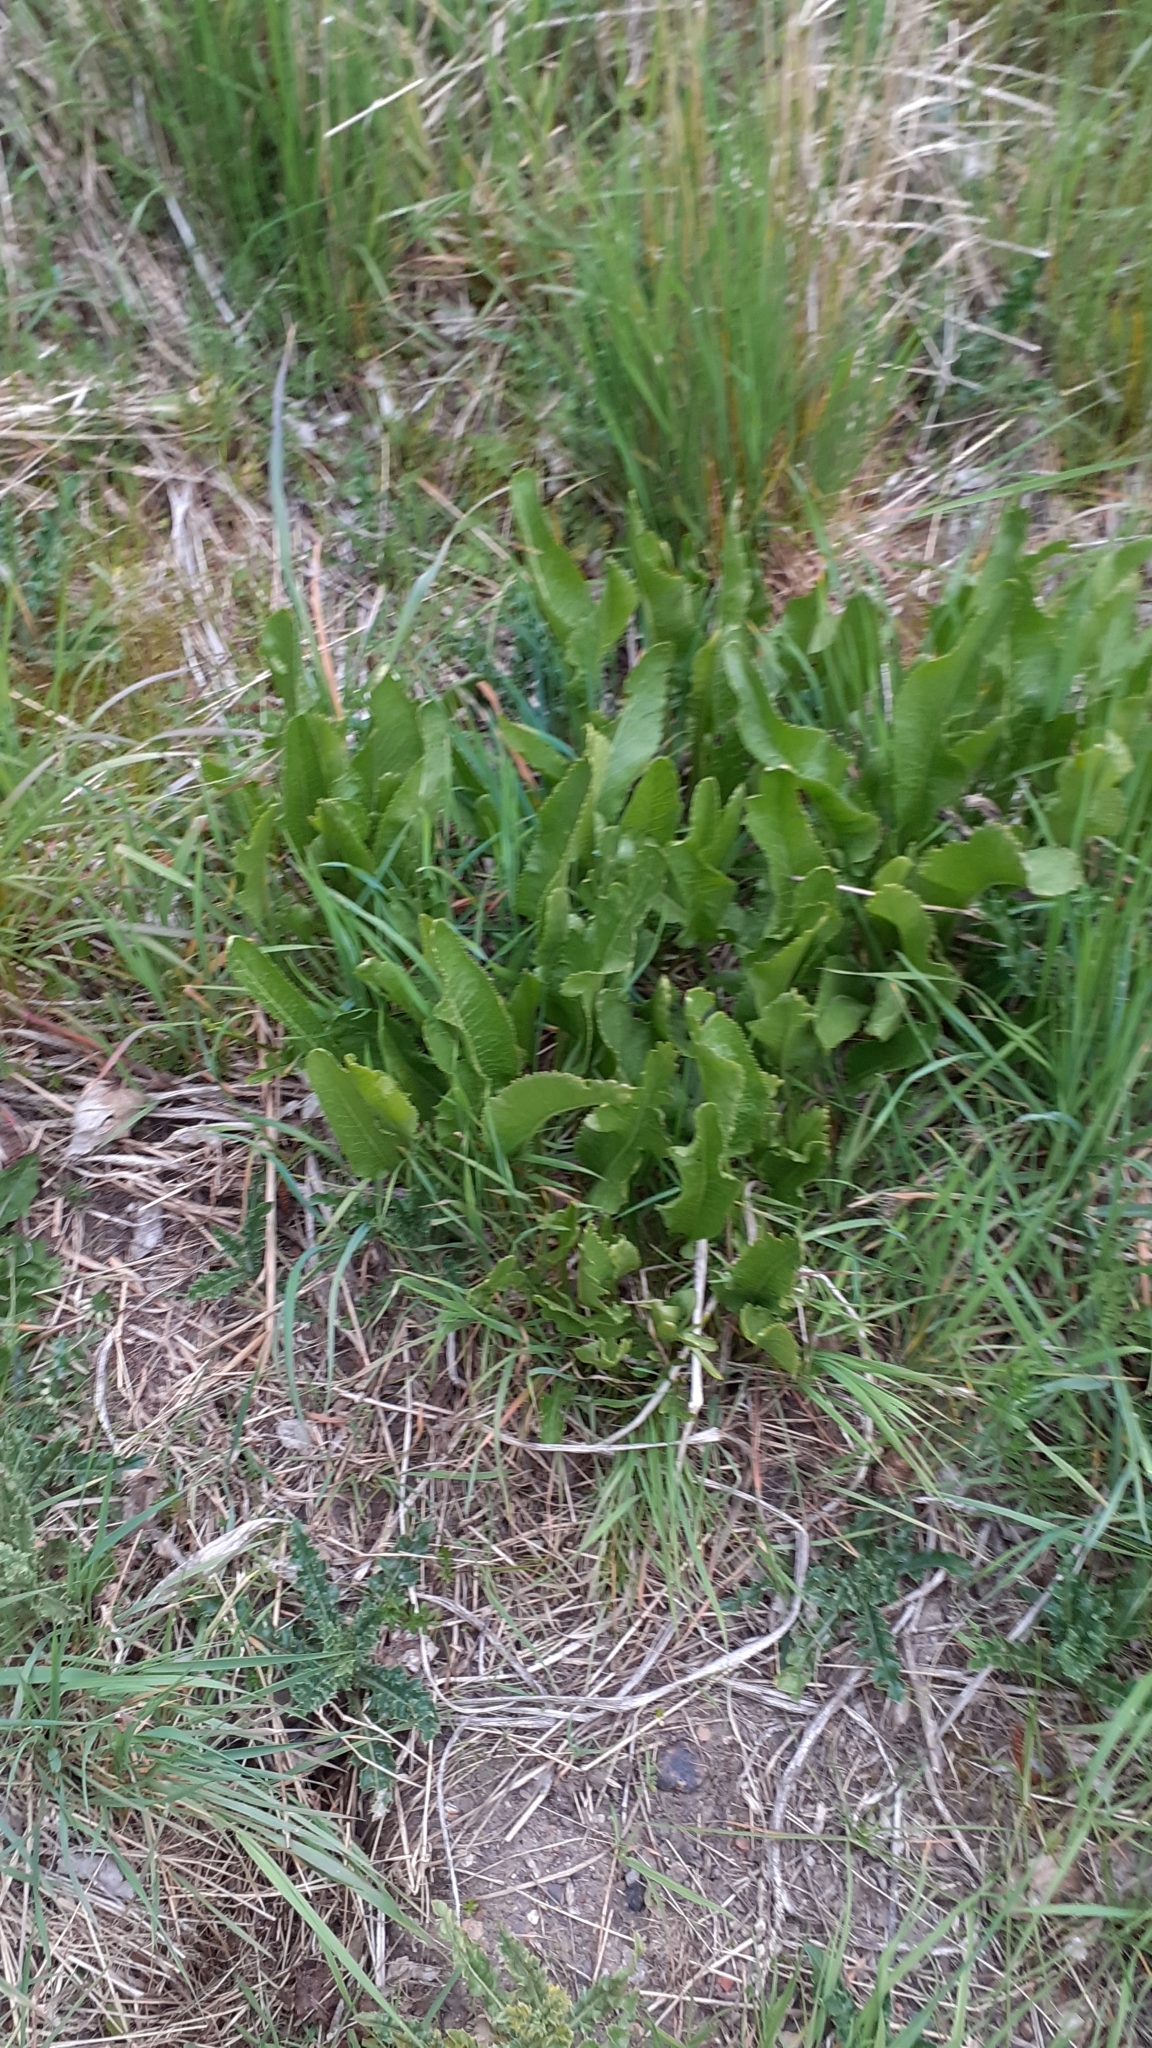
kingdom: Plantae
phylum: Tracheophyta
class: Magnoliopsida
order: Brassicales
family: Brassicaceae
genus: Armoracia
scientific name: Armoracia rusticana
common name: Horseradish
